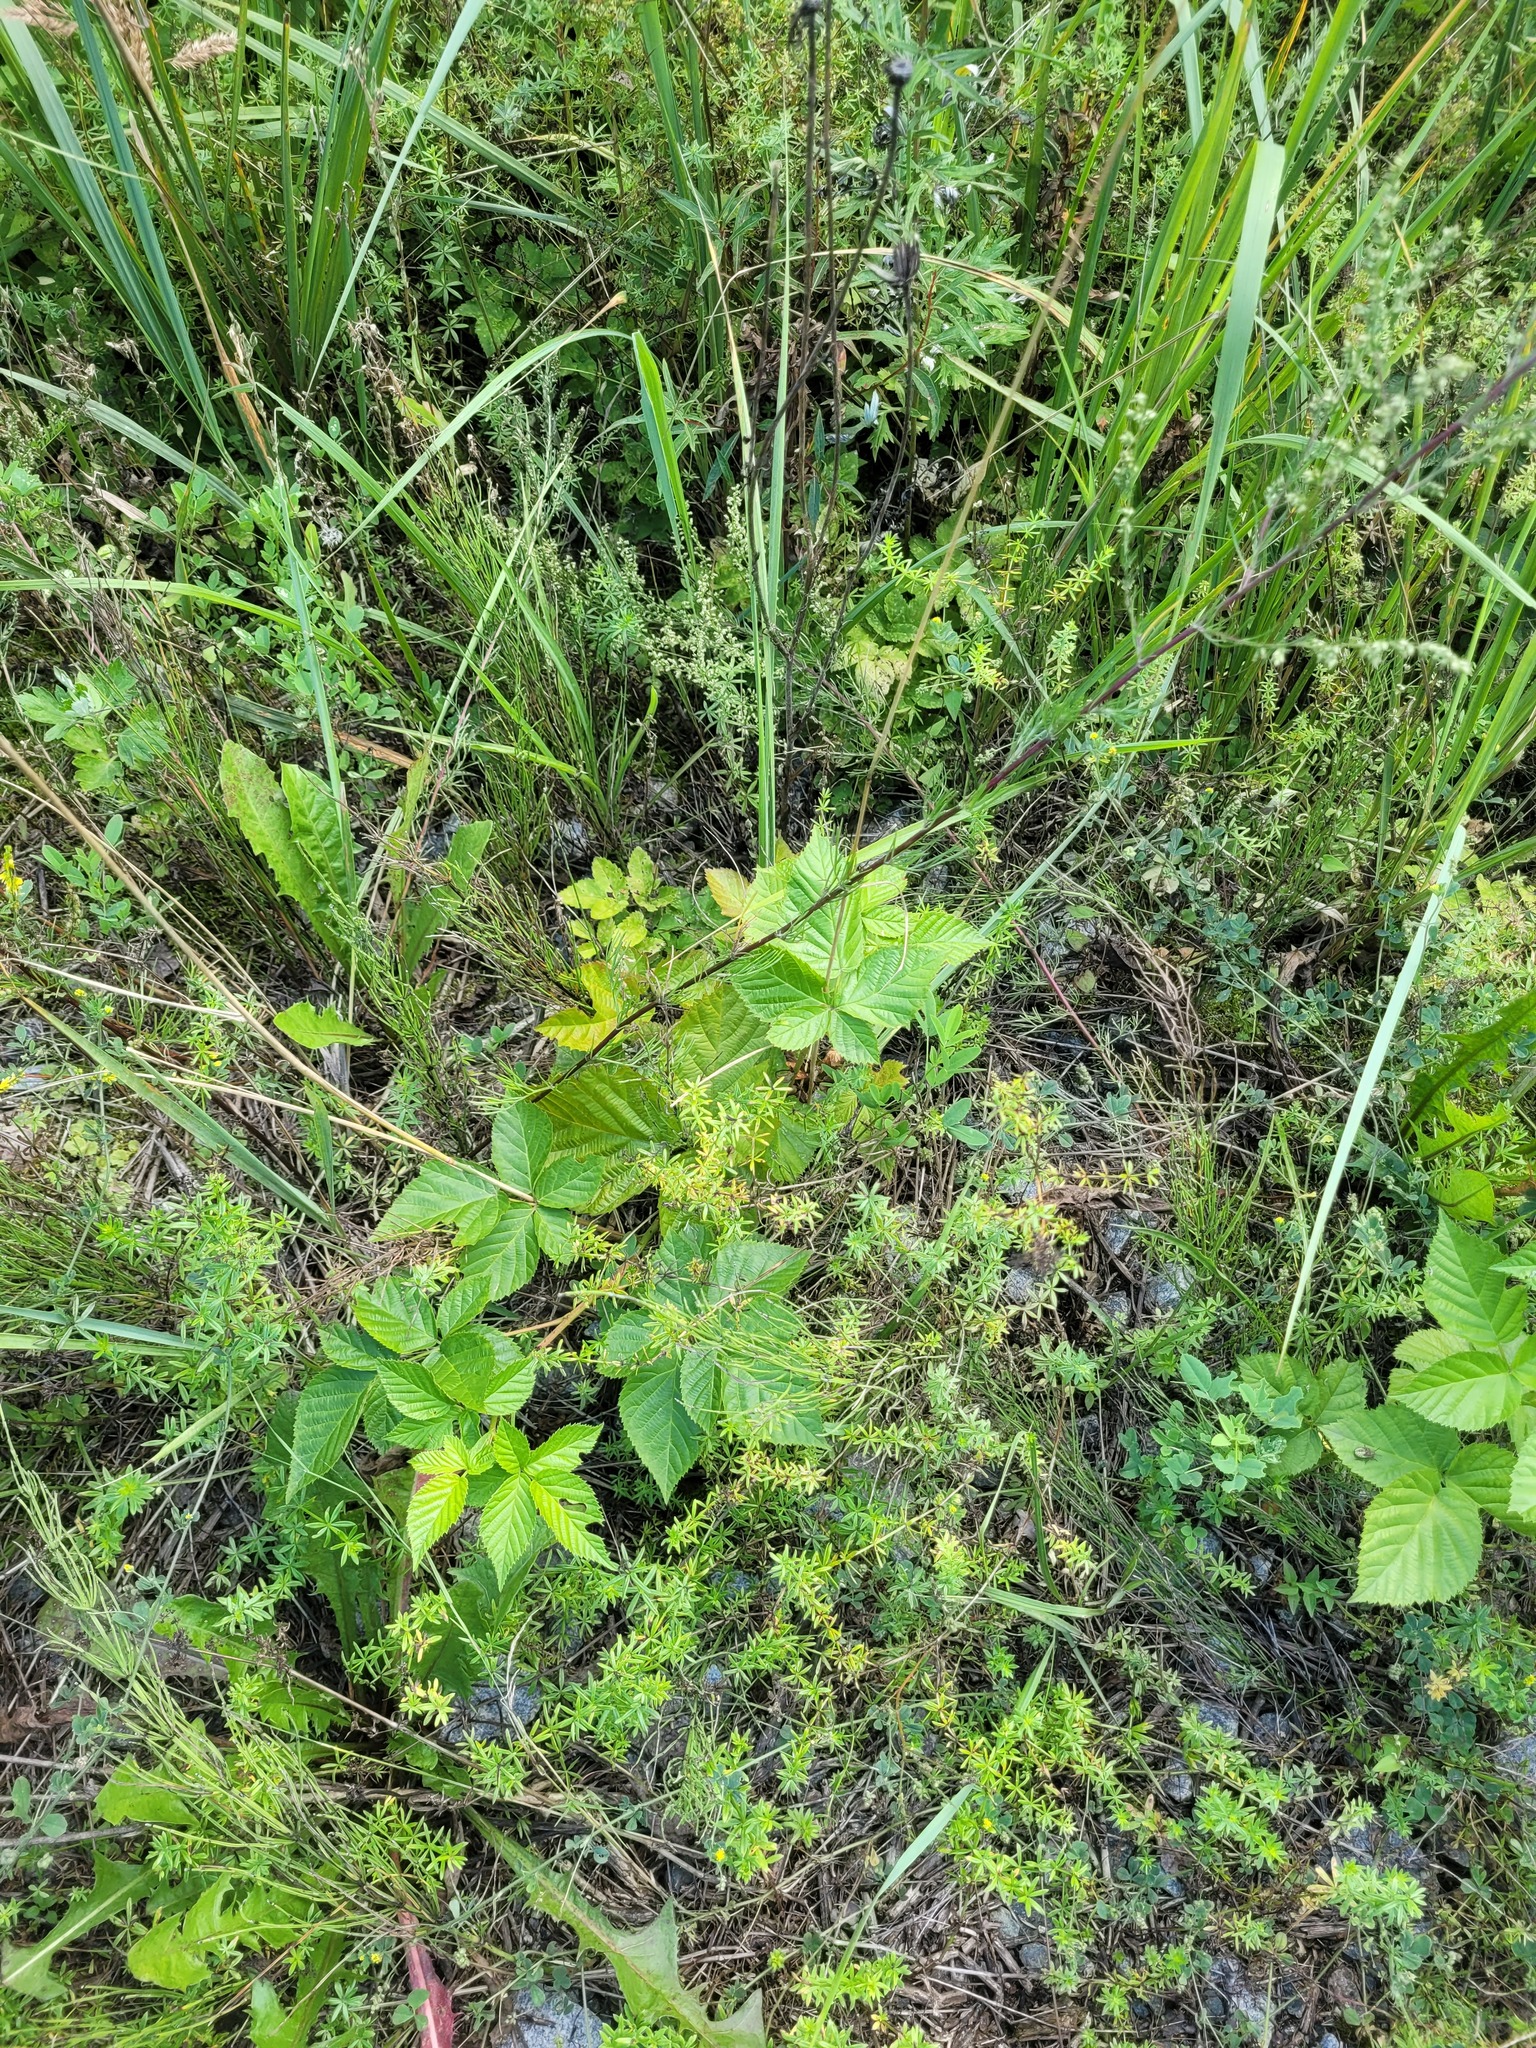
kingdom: Plantae
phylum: Tracheophyta
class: Magnoliopsida
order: Rosales
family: Rosaceae
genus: Rubus
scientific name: Rubus polonicus
